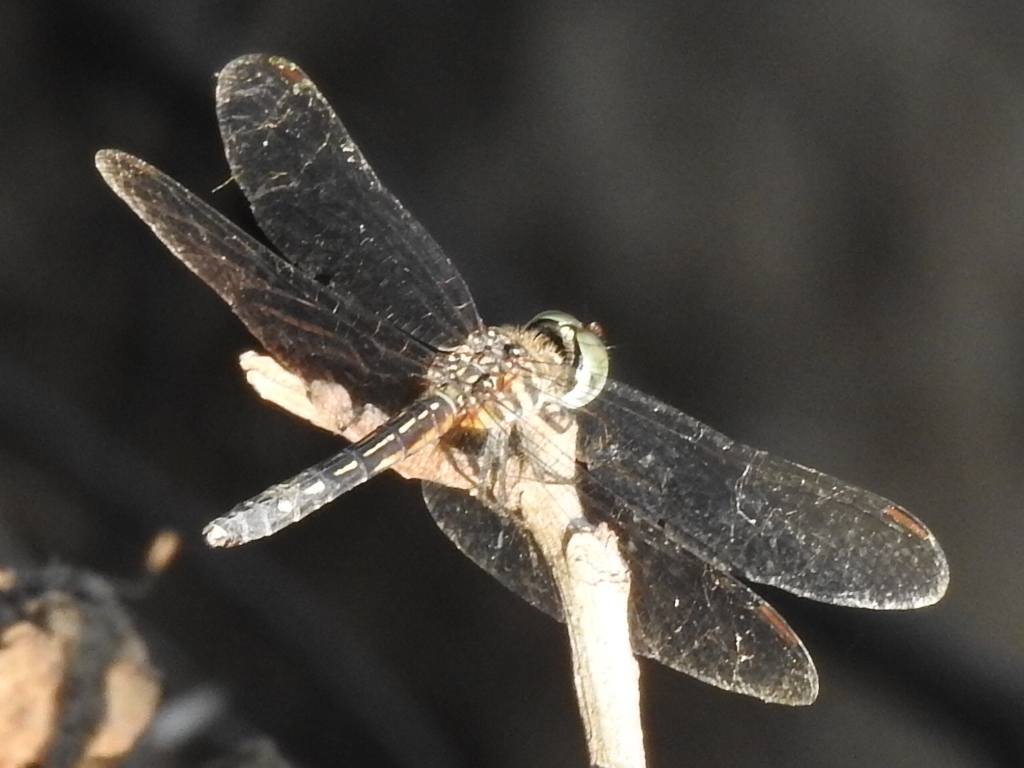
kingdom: Animalia
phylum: Arthropoda
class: Insecta
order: Odonata
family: Libellulidae
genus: Pachydiplax
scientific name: Pachydiplax longipennis
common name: Blue dasher
